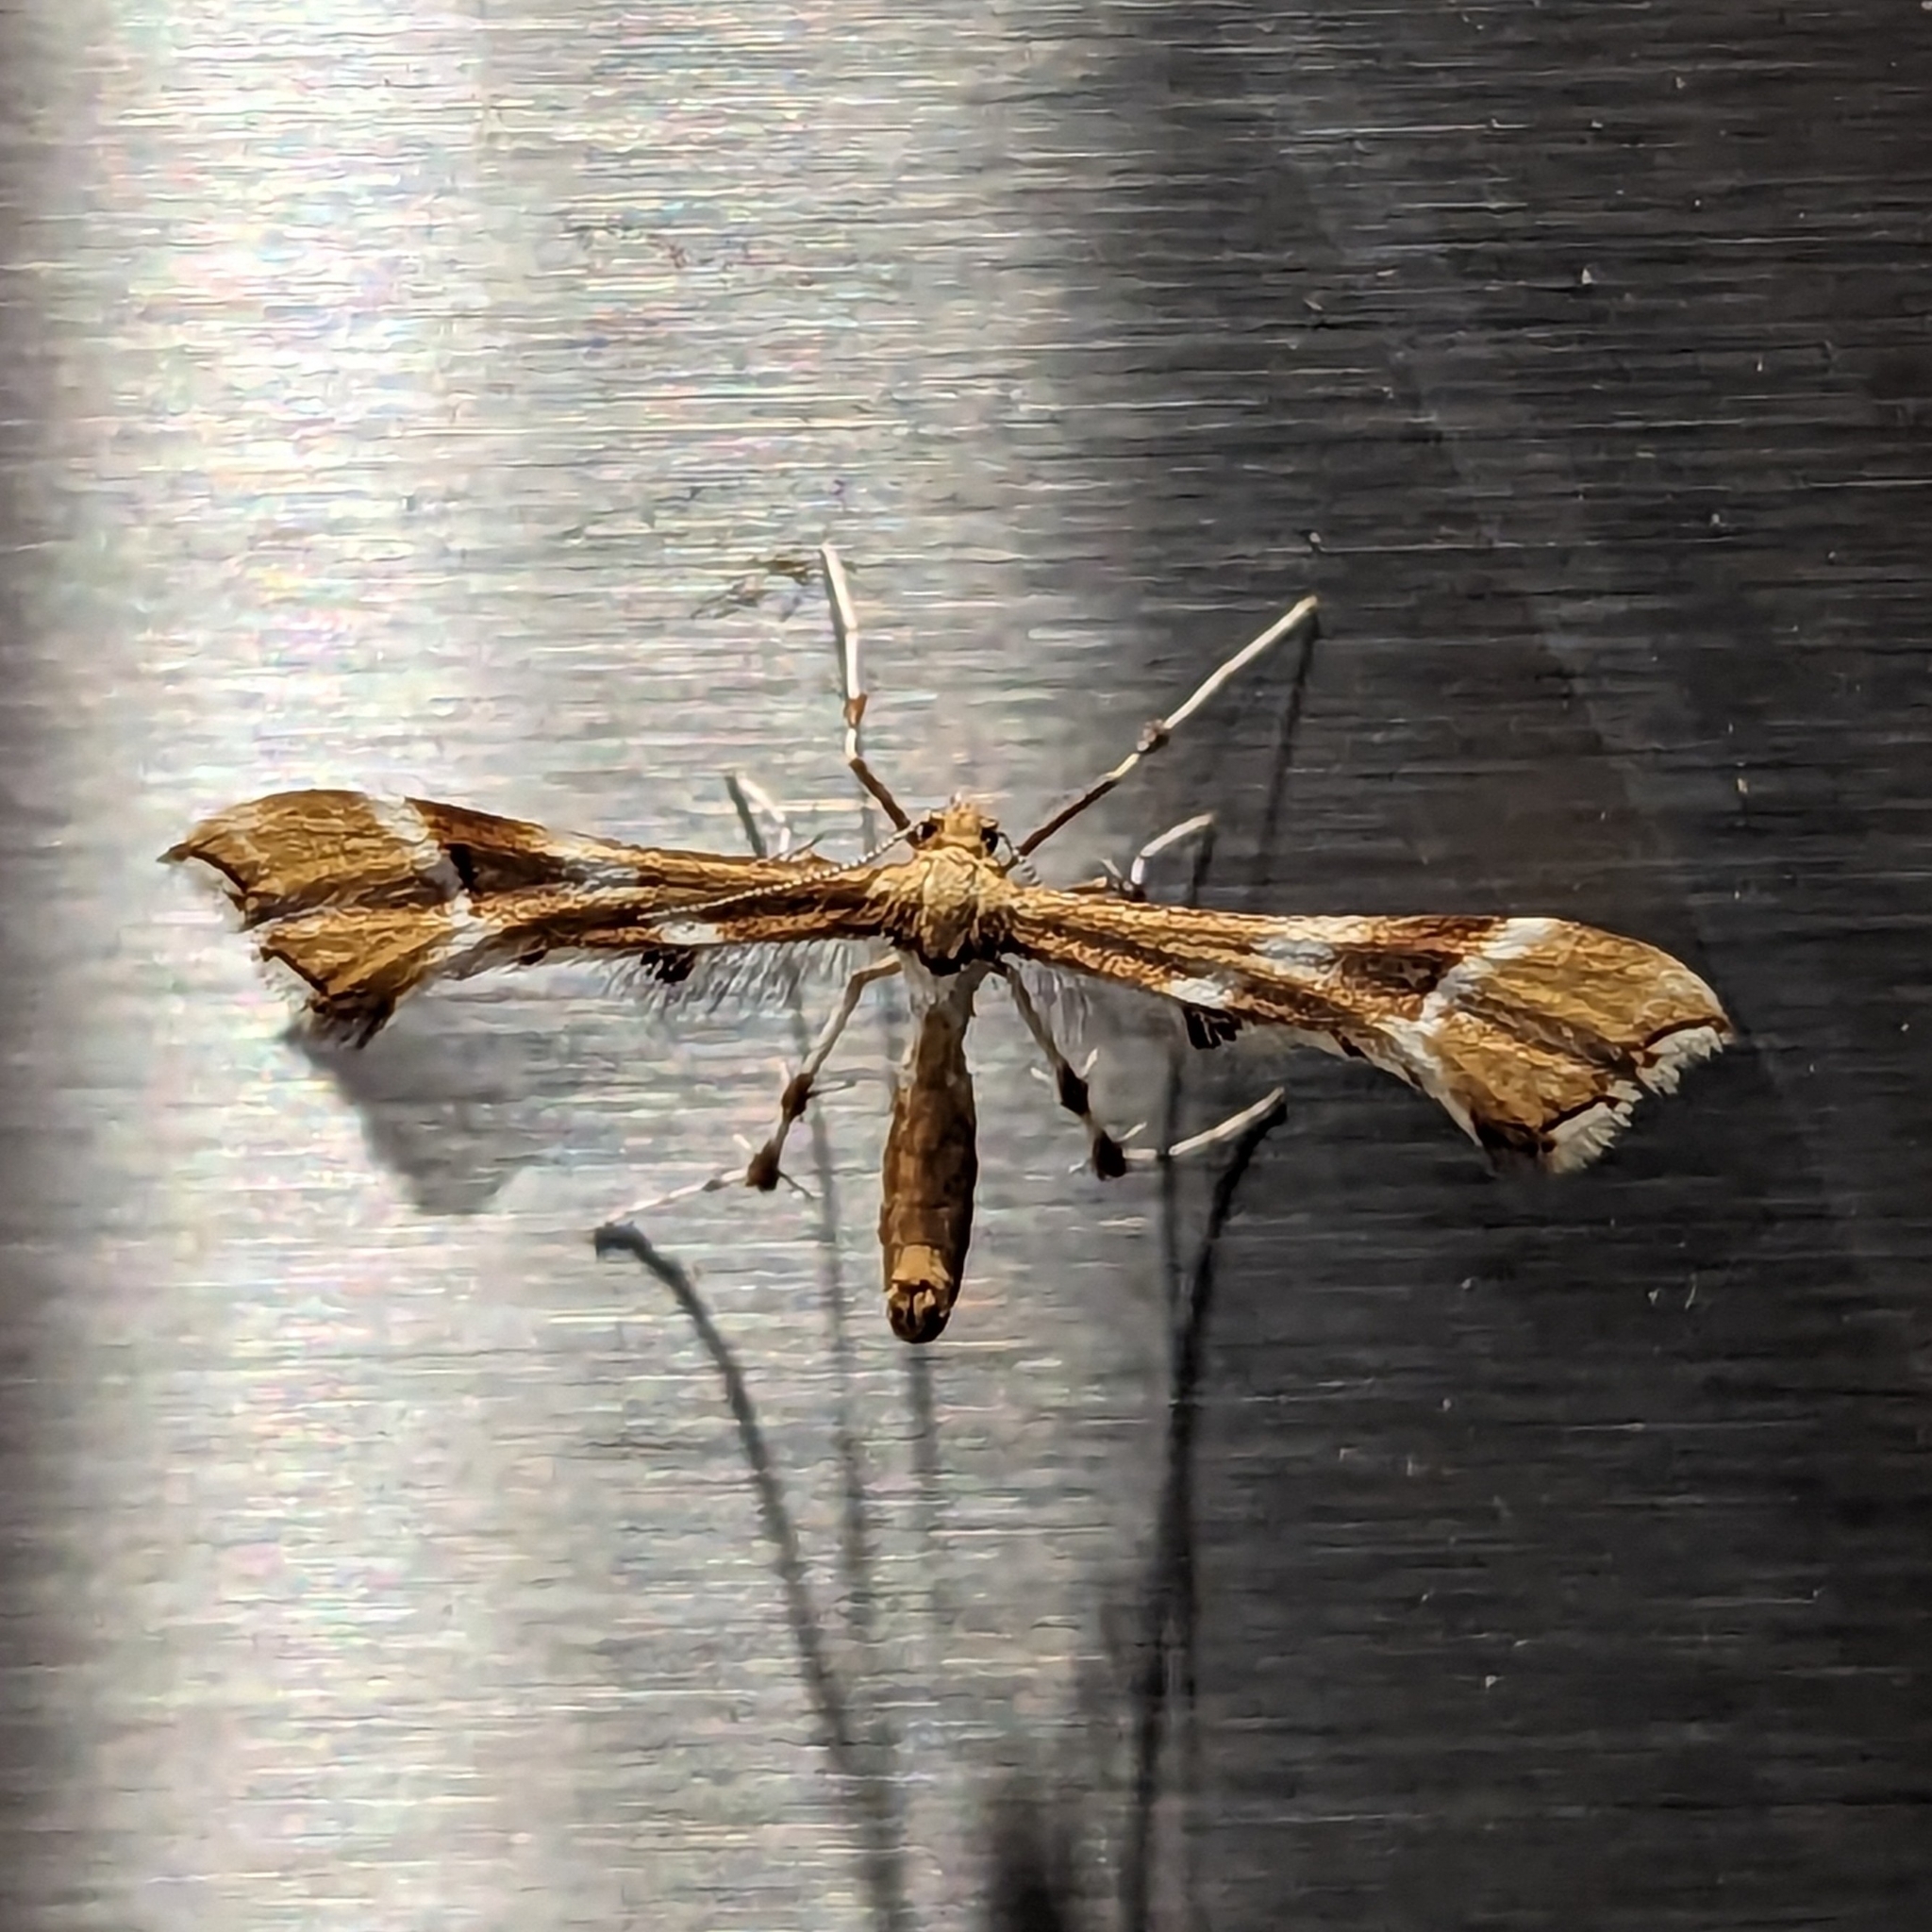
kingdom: Animalia
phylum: Arthropoda
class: Insecta
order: Lepidoptera
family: Pterophoridae
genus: Cnaemidophorus
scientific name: Cnaemidophorus rhododactyla
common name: Rose plume
